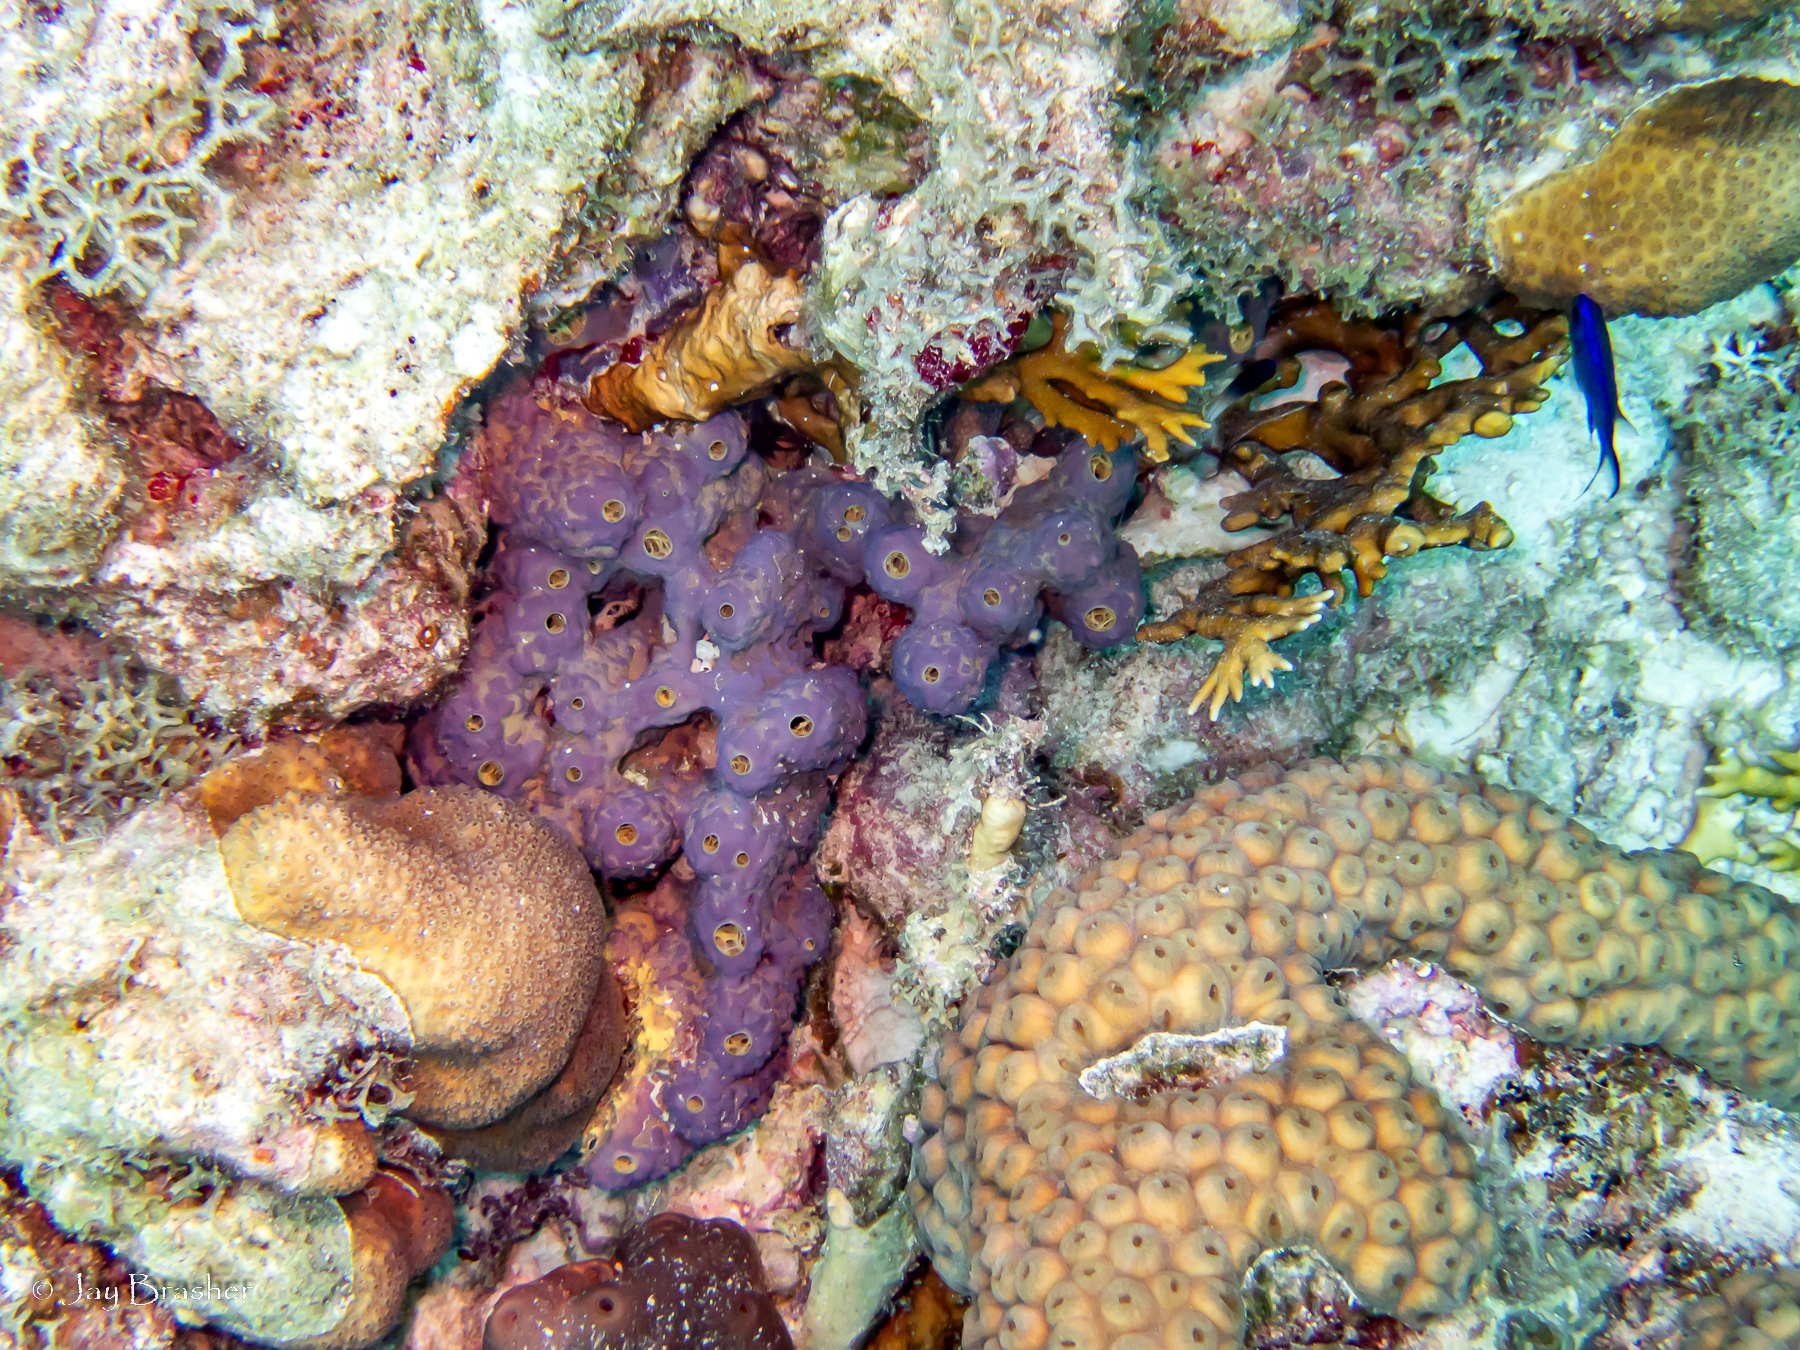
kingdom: Animalia
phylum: Porifera
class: Demospongiae
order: Verongiida
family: Aplysinidae
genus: Aiolochroia
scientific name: Aiolochroia crassa
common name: Branching tube sponge
